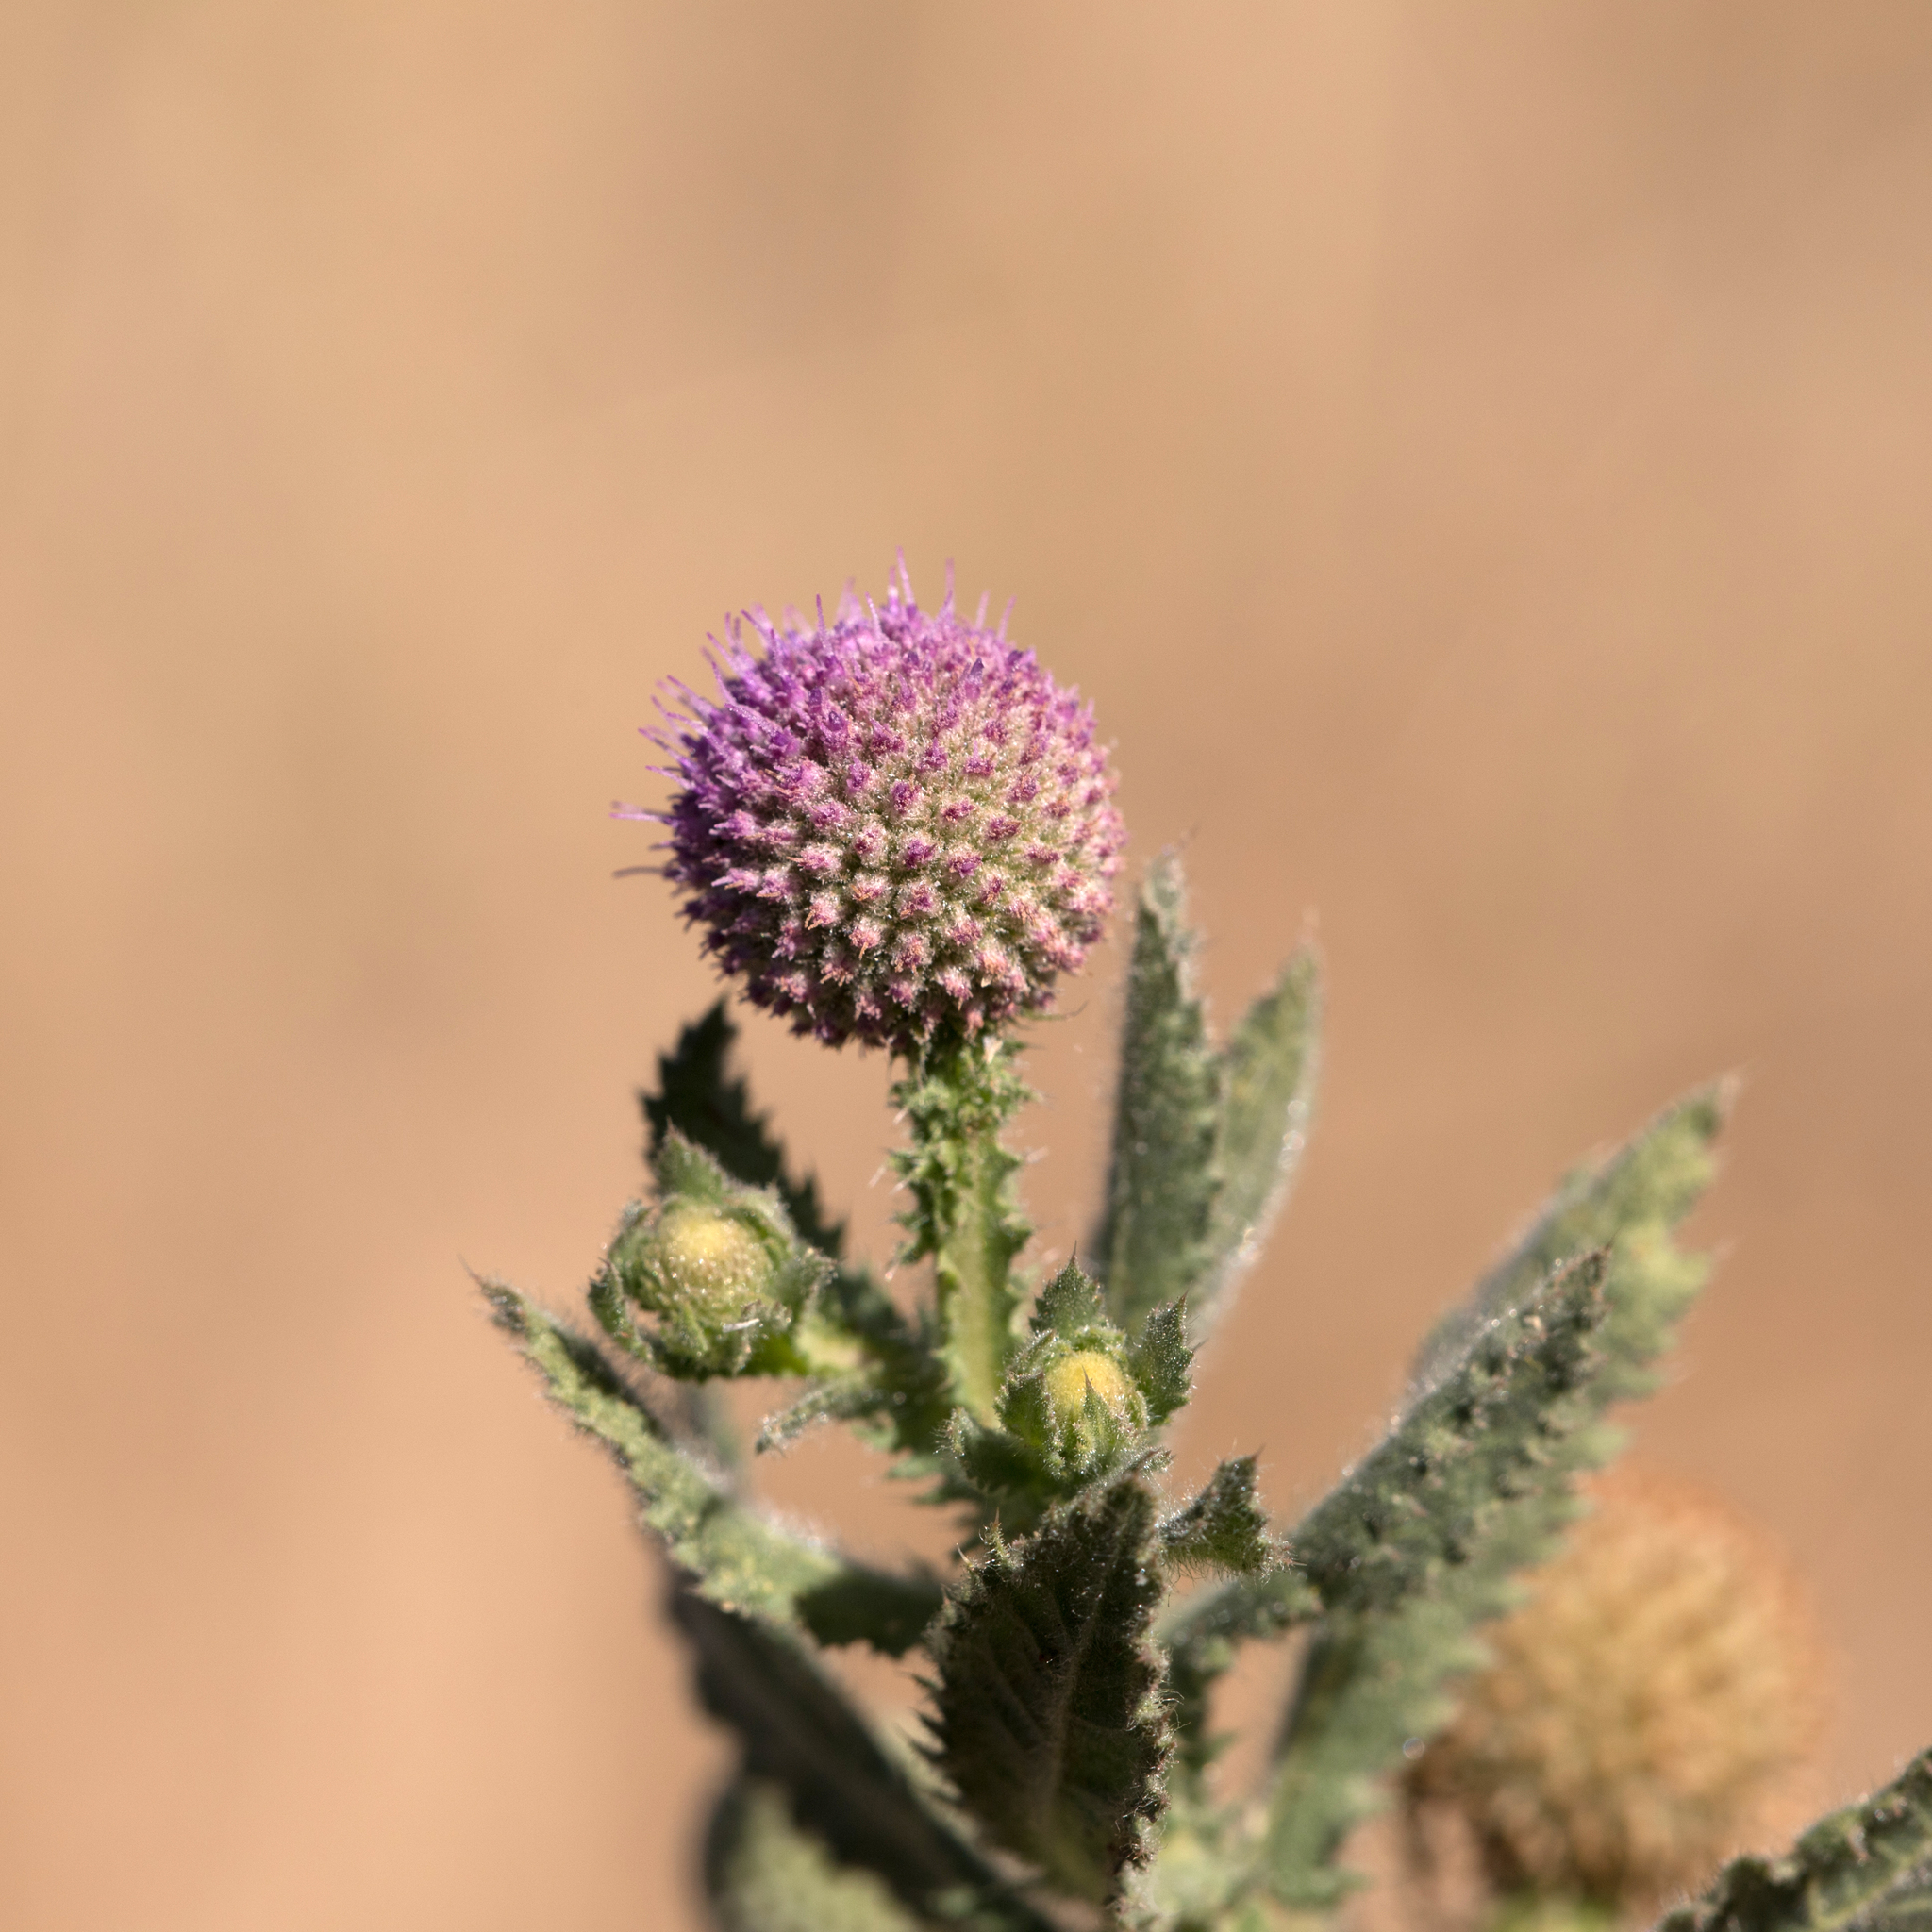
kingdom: Plantae
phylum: Tracheophyta
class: Magnoliopsida
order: Asterales
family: Asteraceae
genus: Sphaeranthus
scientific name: Sphaeranthus indicus
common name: East indian globe thistle
